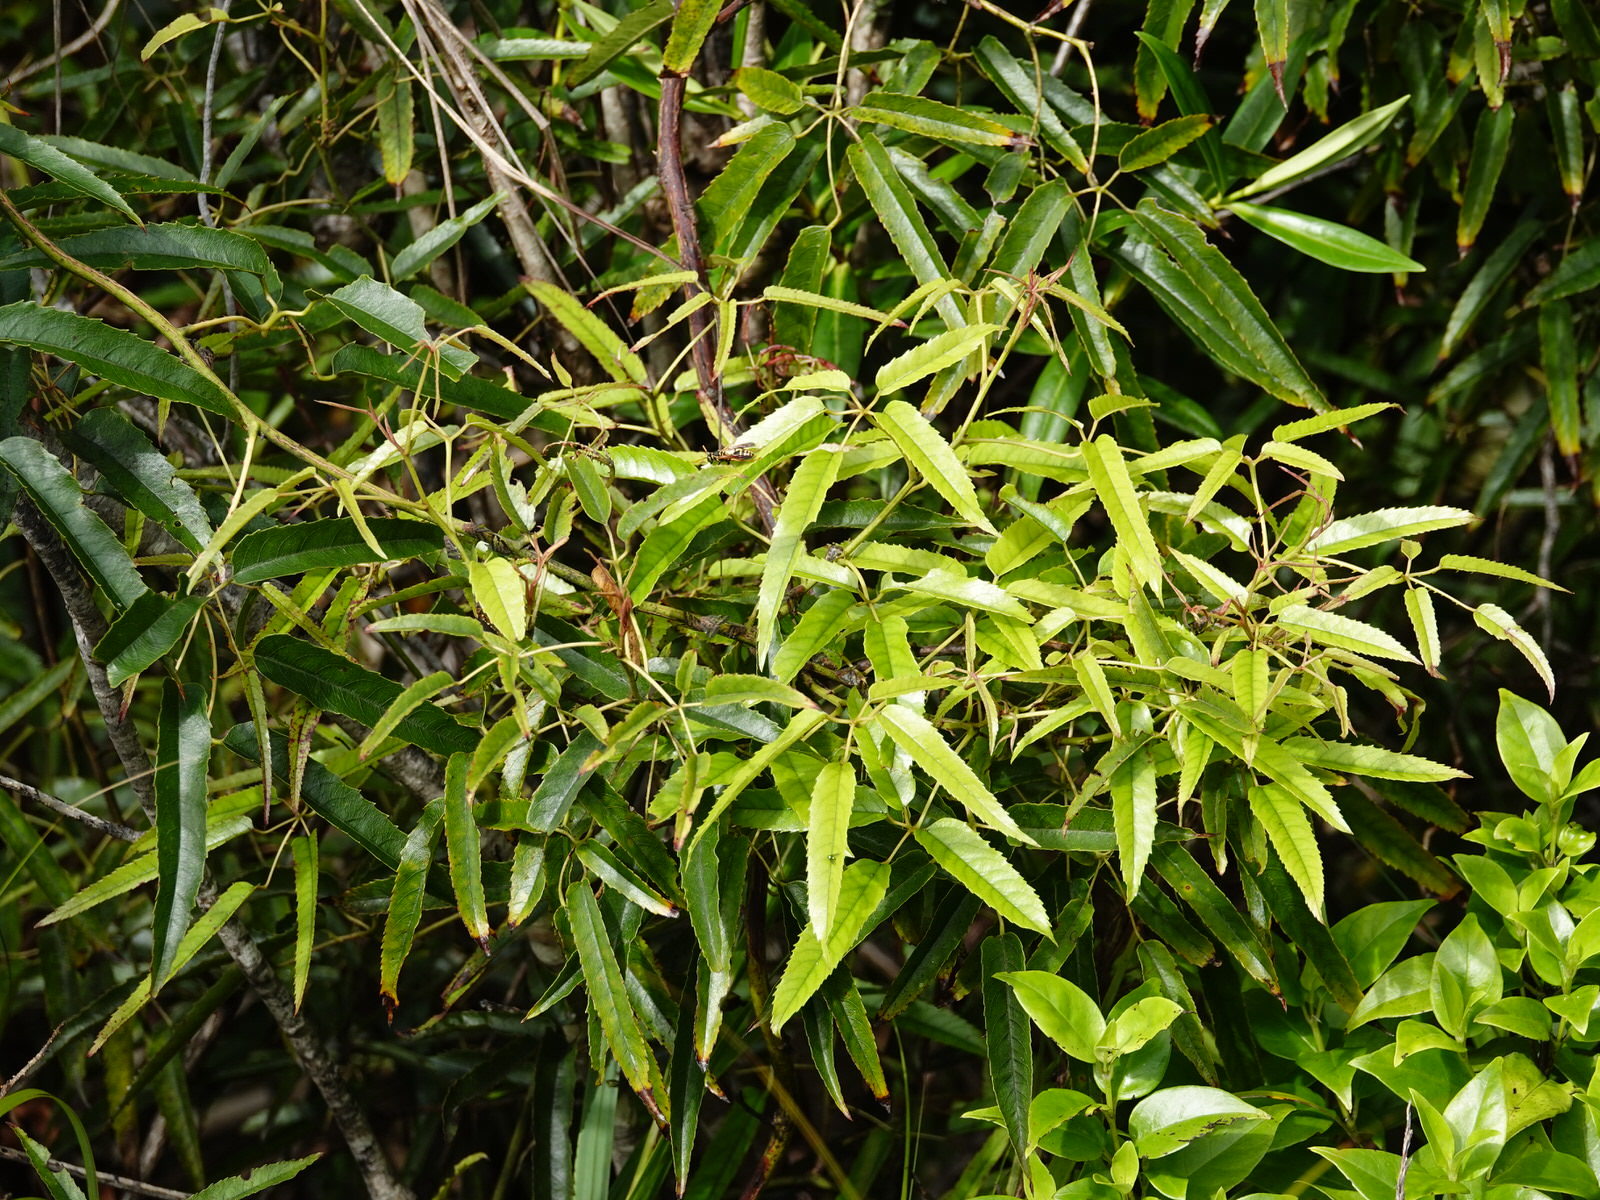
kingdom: Plantae
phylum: Tracheophyta
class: Magnoliopsida
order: Rosales
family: Rosaceae
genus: Rubus
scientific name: Rubus cissoides
